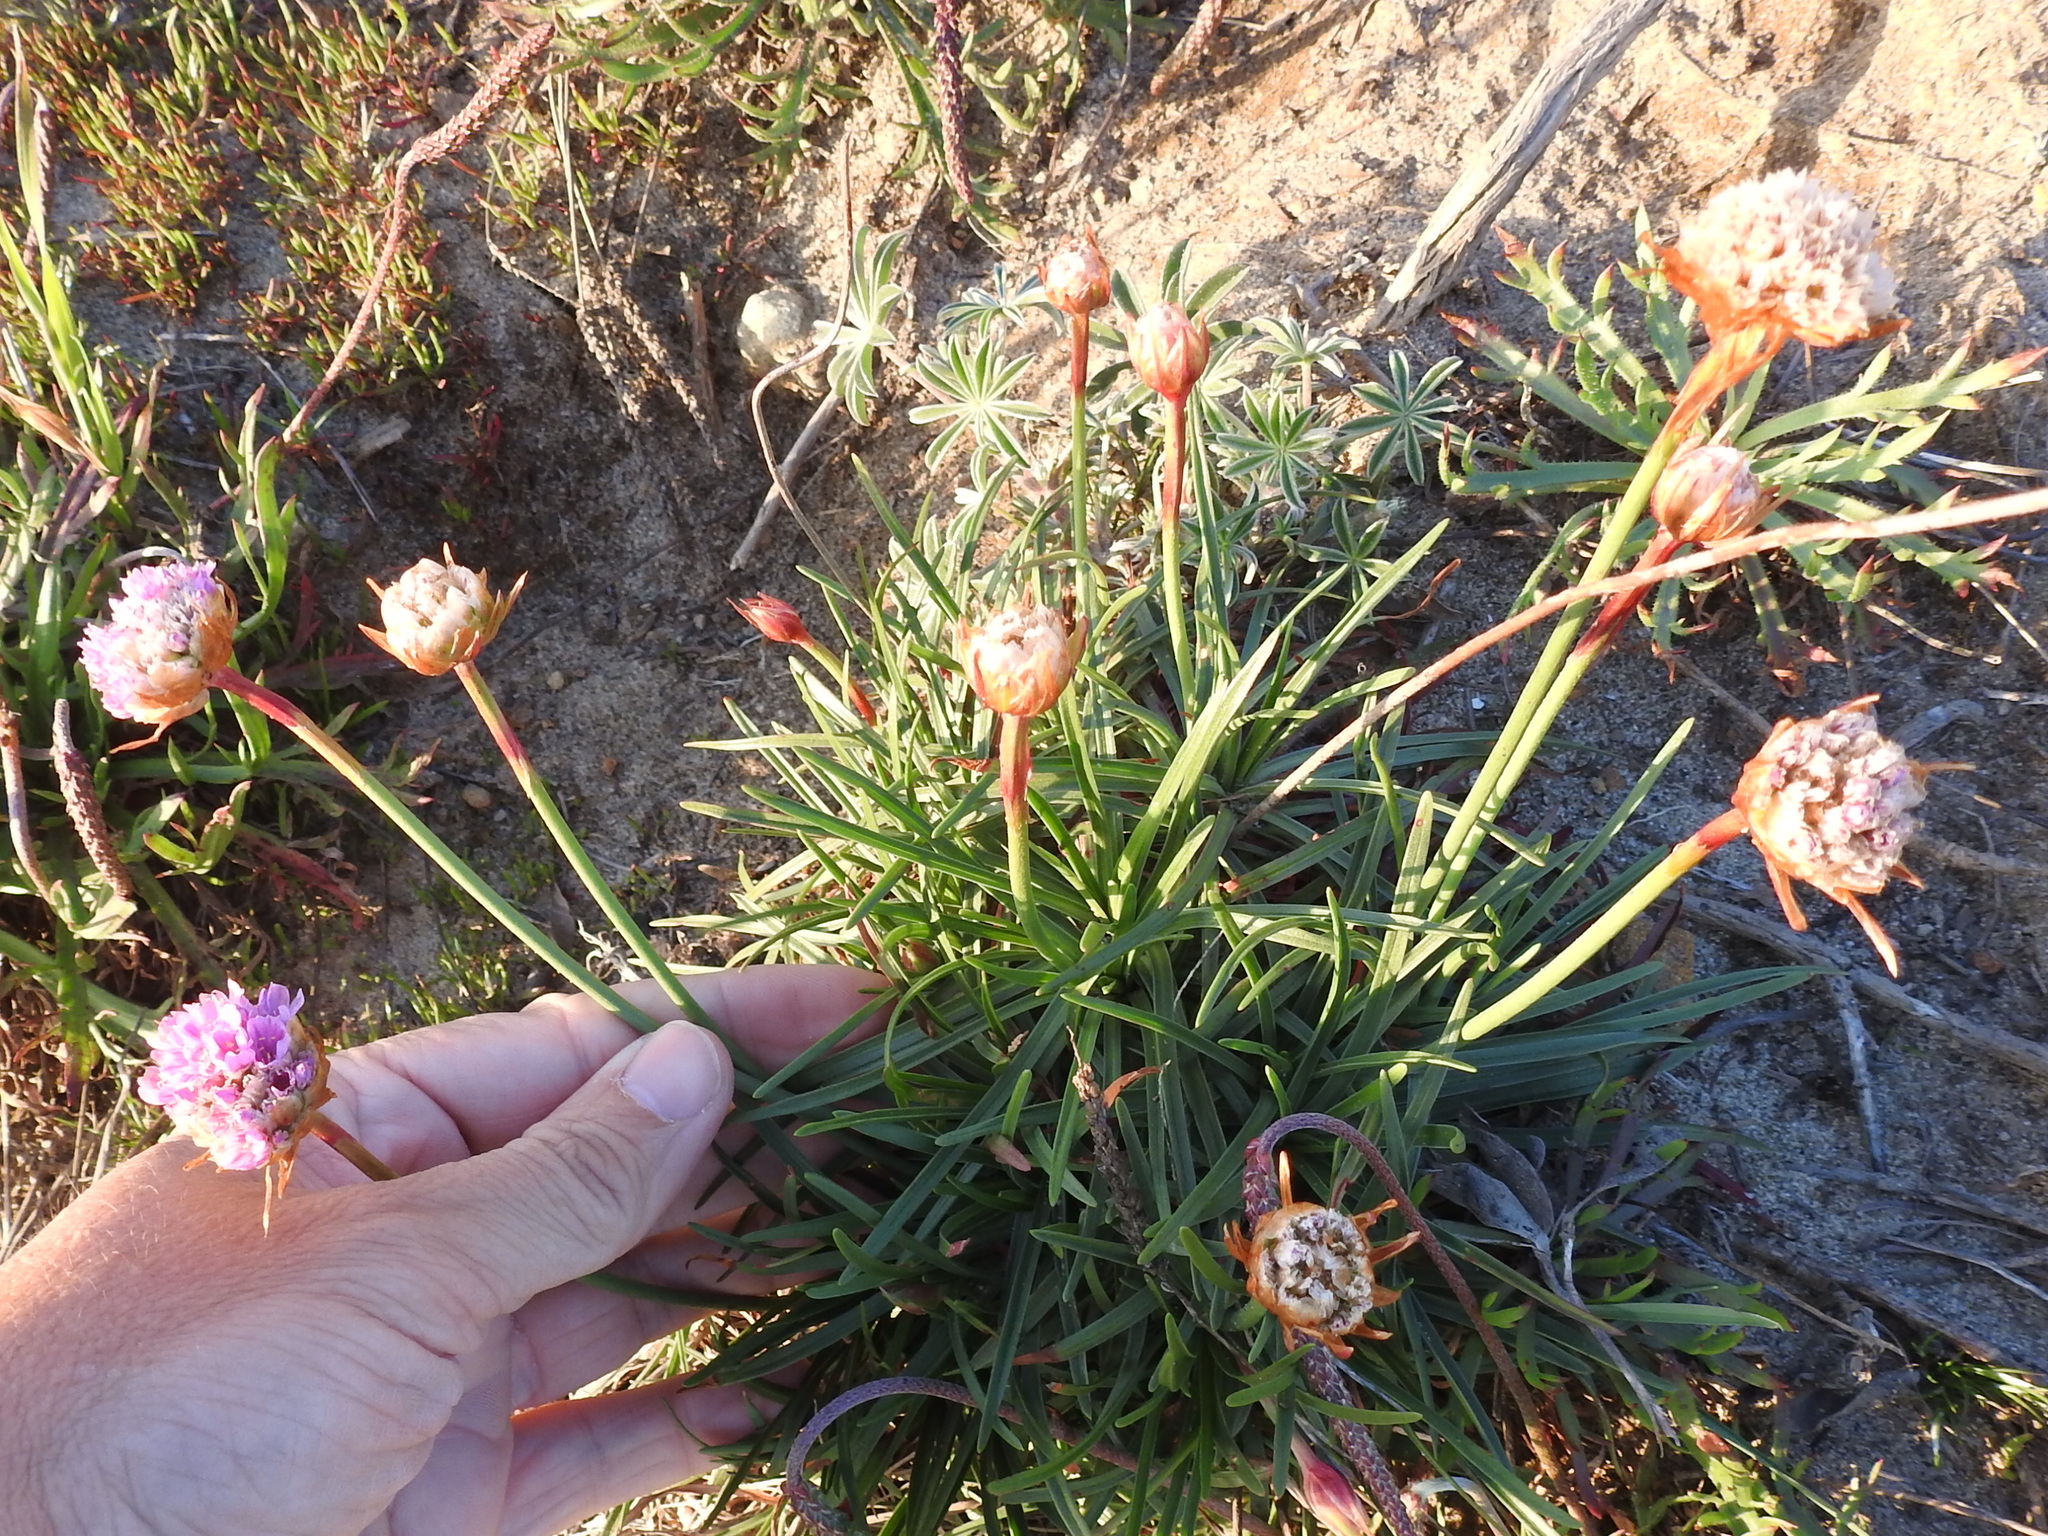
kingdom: Plantae
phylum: Tracheophyta
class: Magnoliopsida
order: Caryophyllales
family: Plumbaginaceae
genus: Armeria
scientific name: Armeria maritima
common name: Thrift
